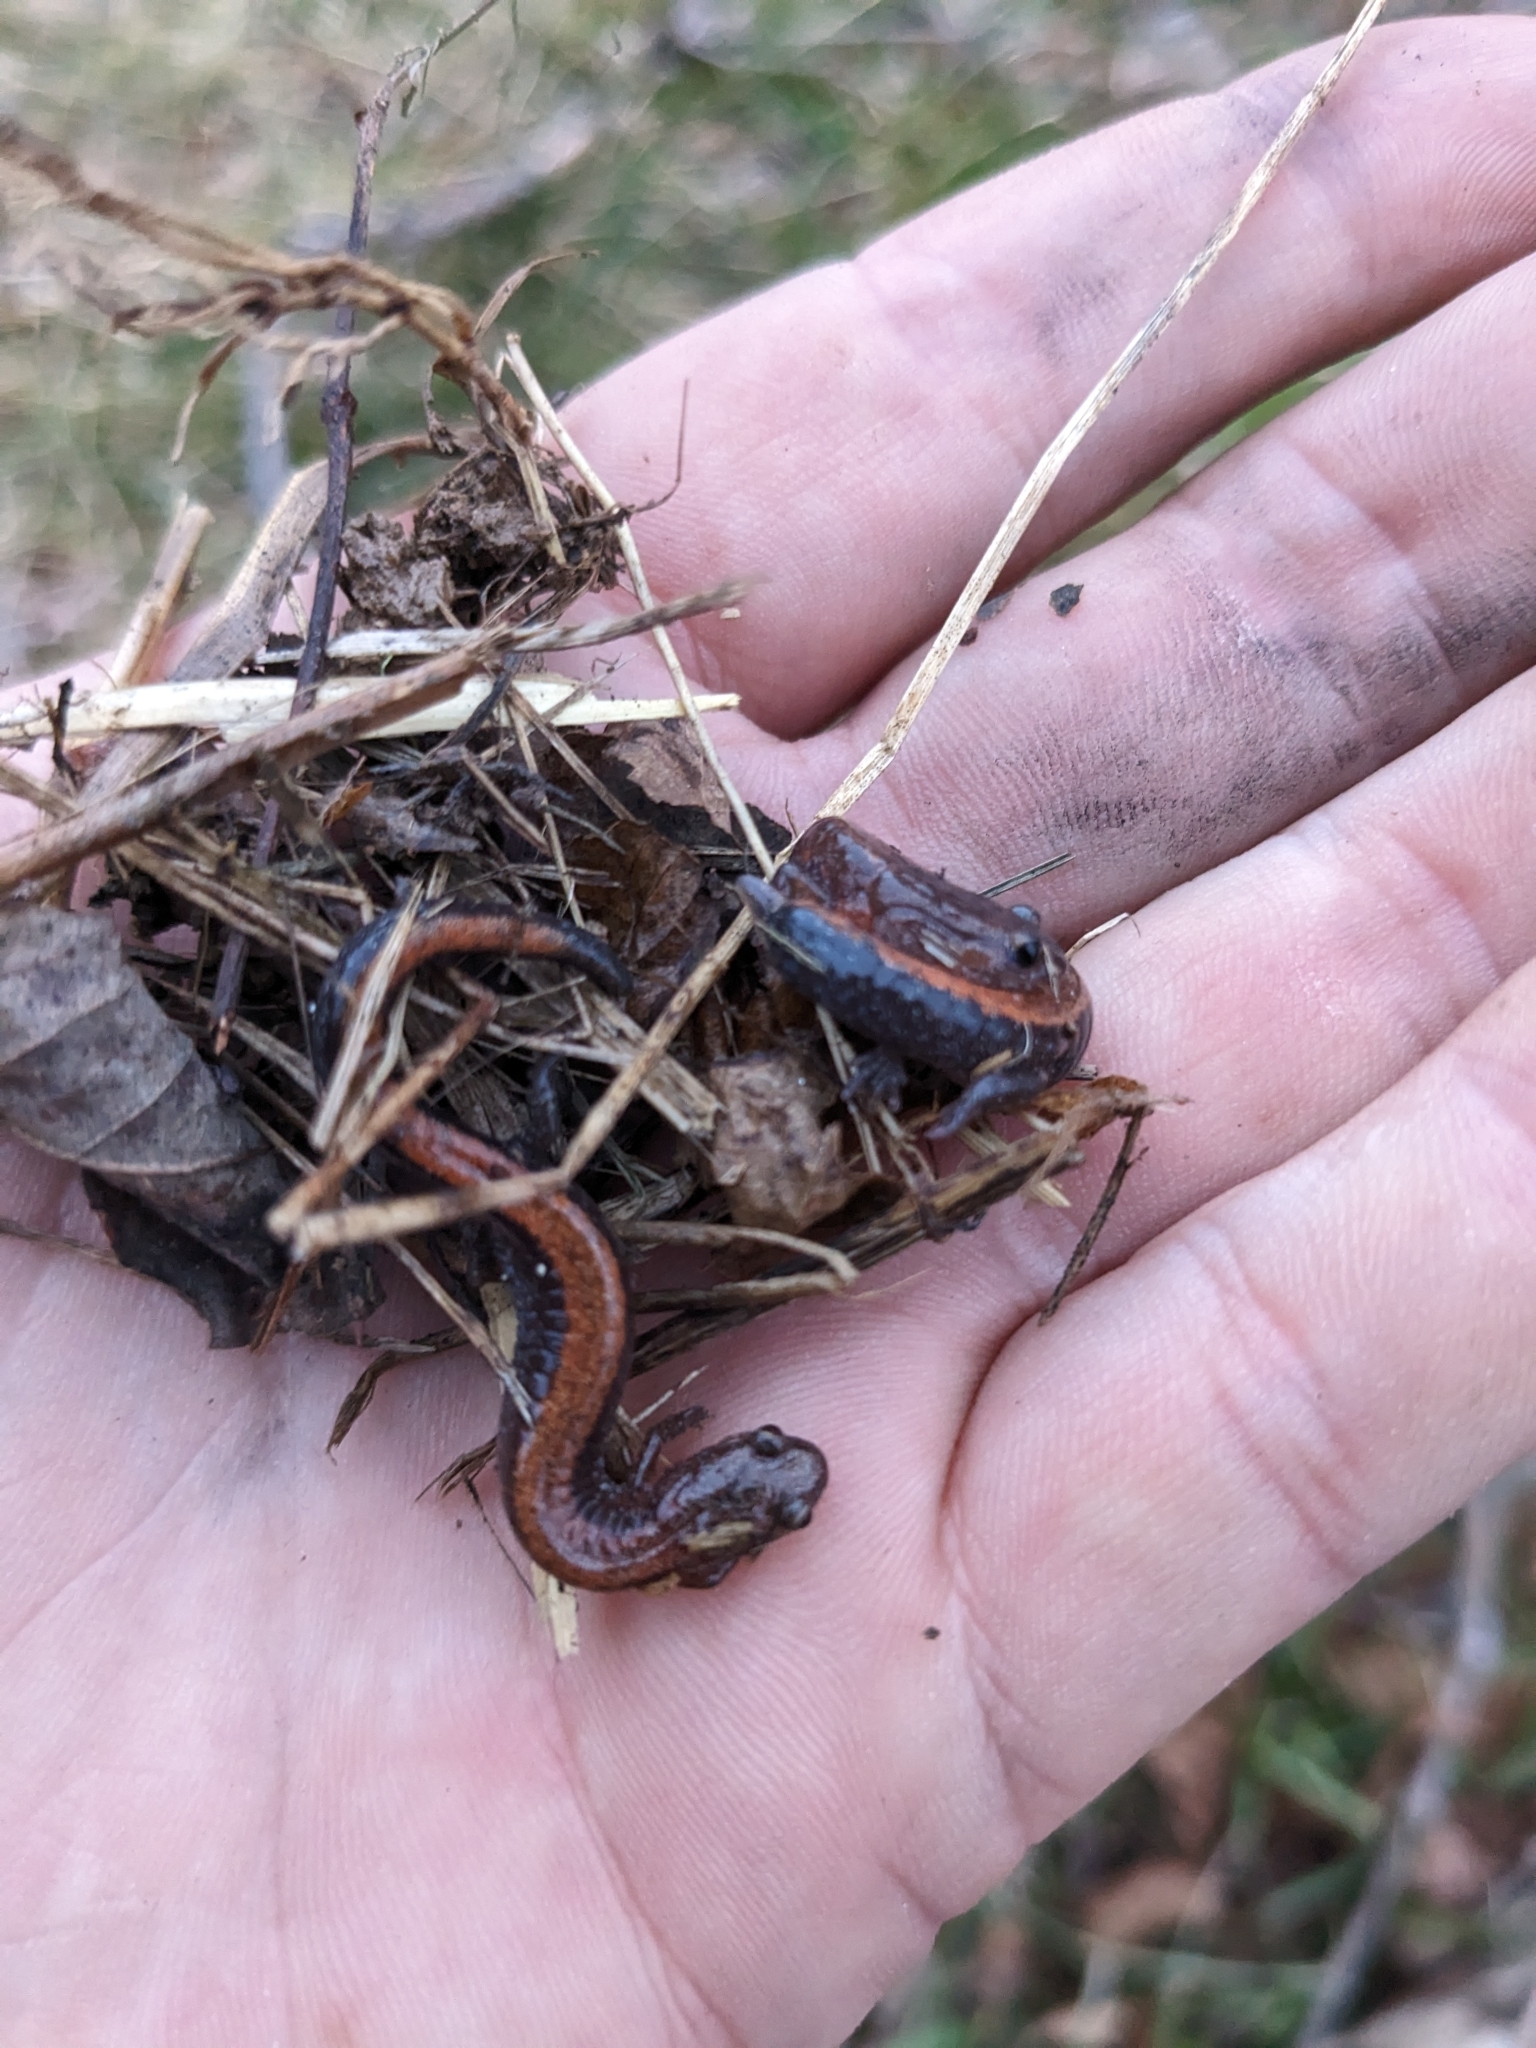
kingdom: Animalia
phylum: Chordata
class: Amphibia
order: Caudata
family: Plethodontidae
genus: Plethodon
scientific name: Plethodon serratus
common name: Southern red-backed salamander
